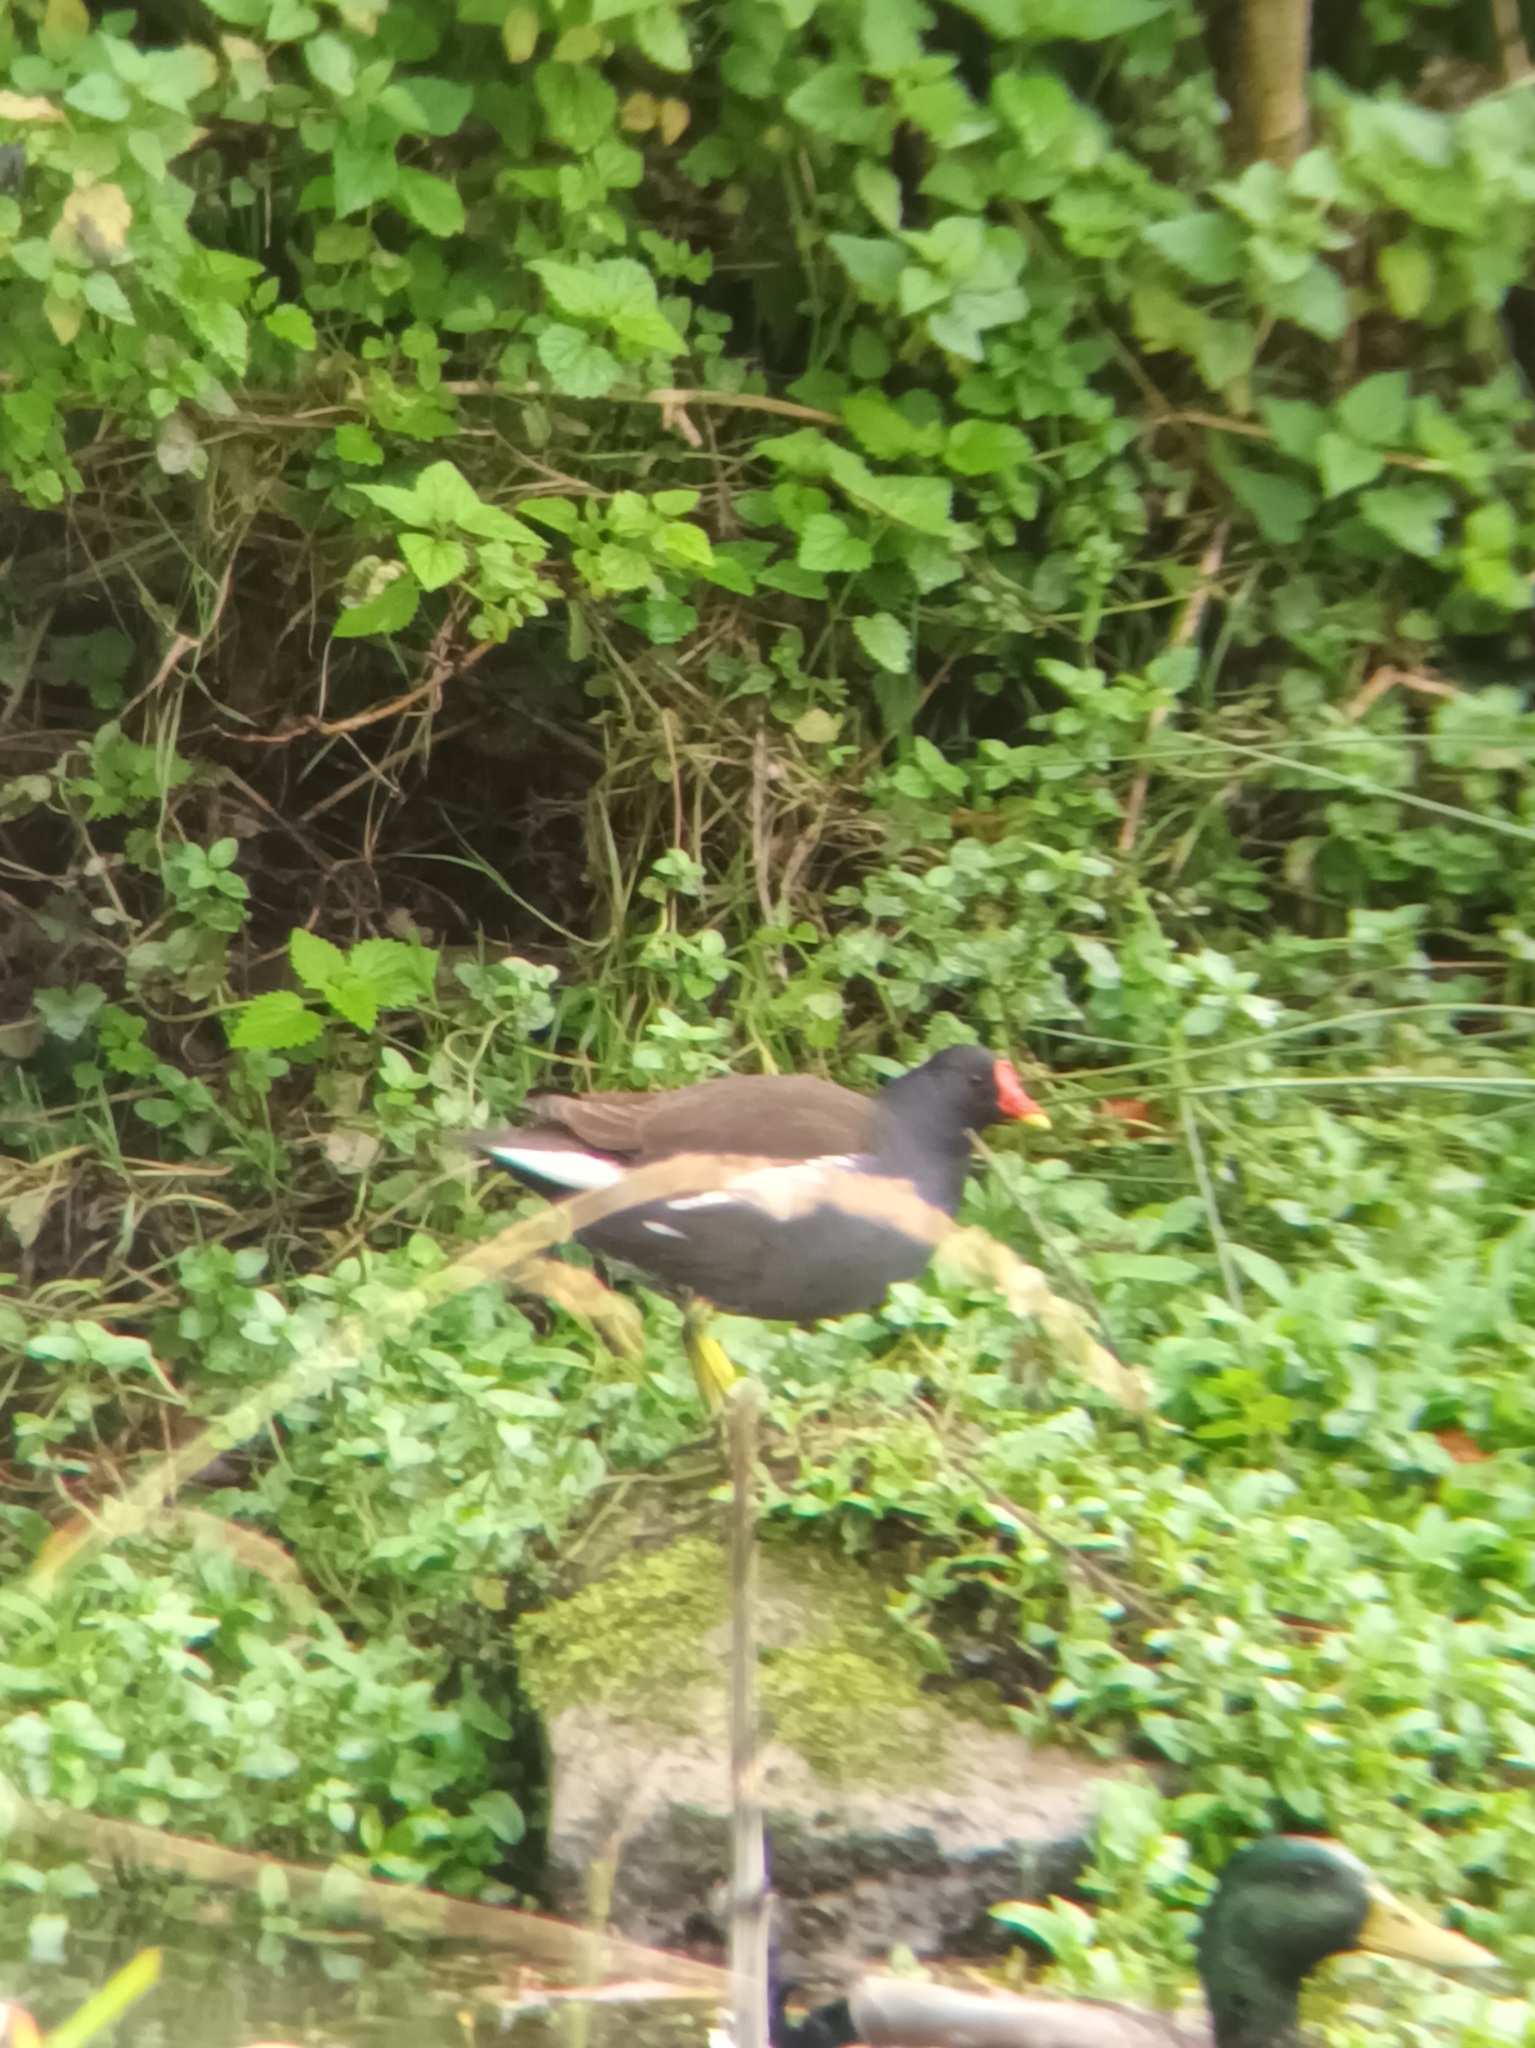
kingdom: Animalia
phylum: Chordata
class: Aves
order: Gruiformes
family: Rallidae
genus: Gallinula
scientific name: Gallinula chloropus
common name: Common moorhen
